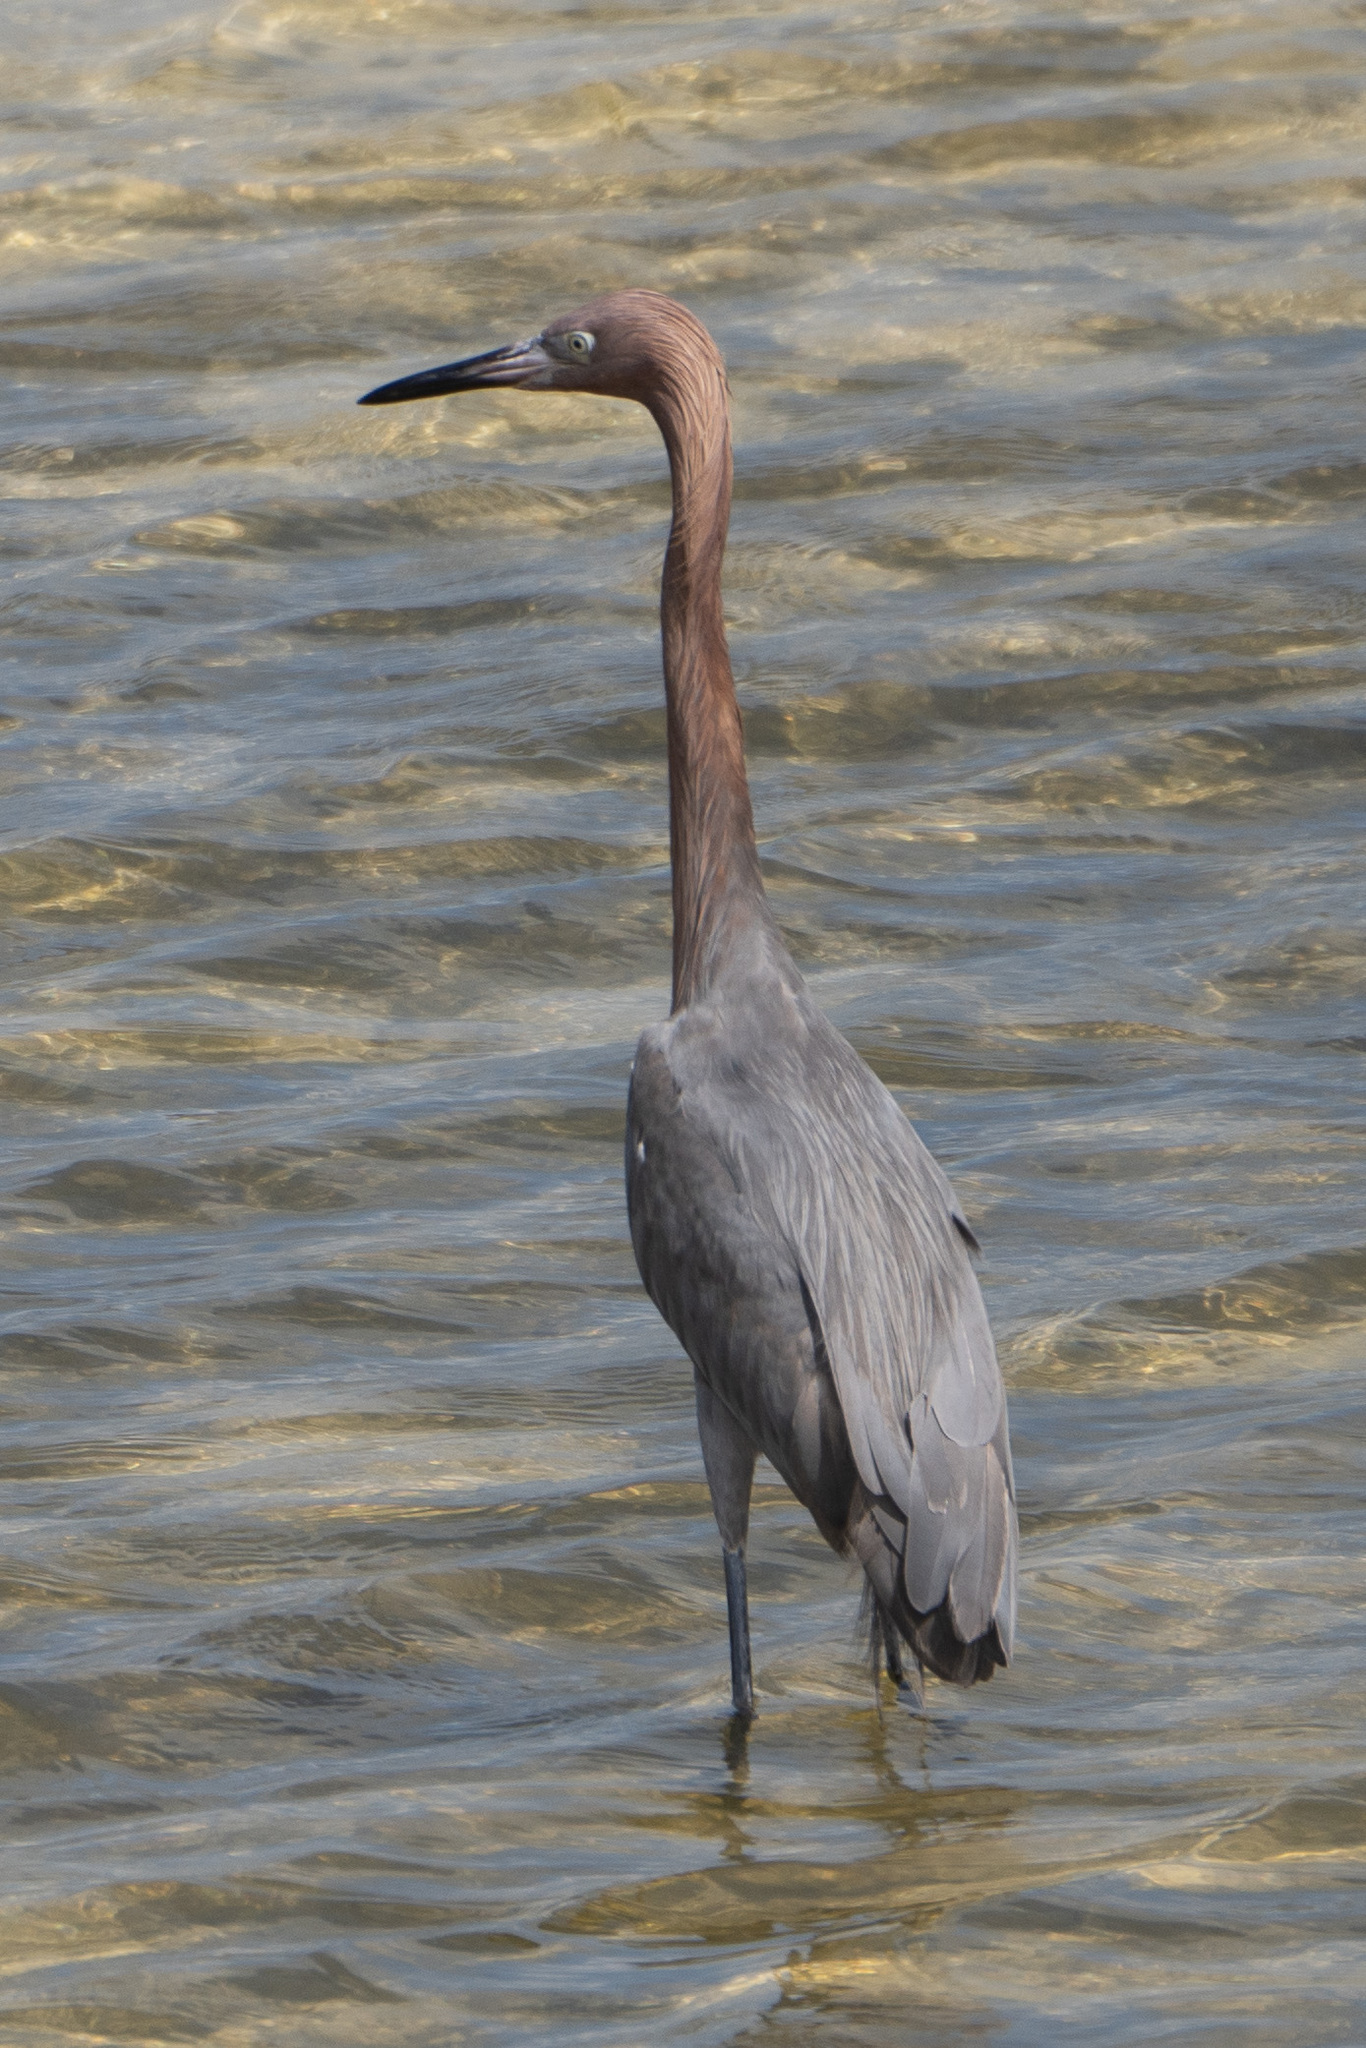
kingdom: Animalia
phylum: Chordata
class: Aves
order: Pelecaniformes
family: Ardeidae
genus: Egretta
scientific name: Egretta rufescens
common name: Reddish egret
